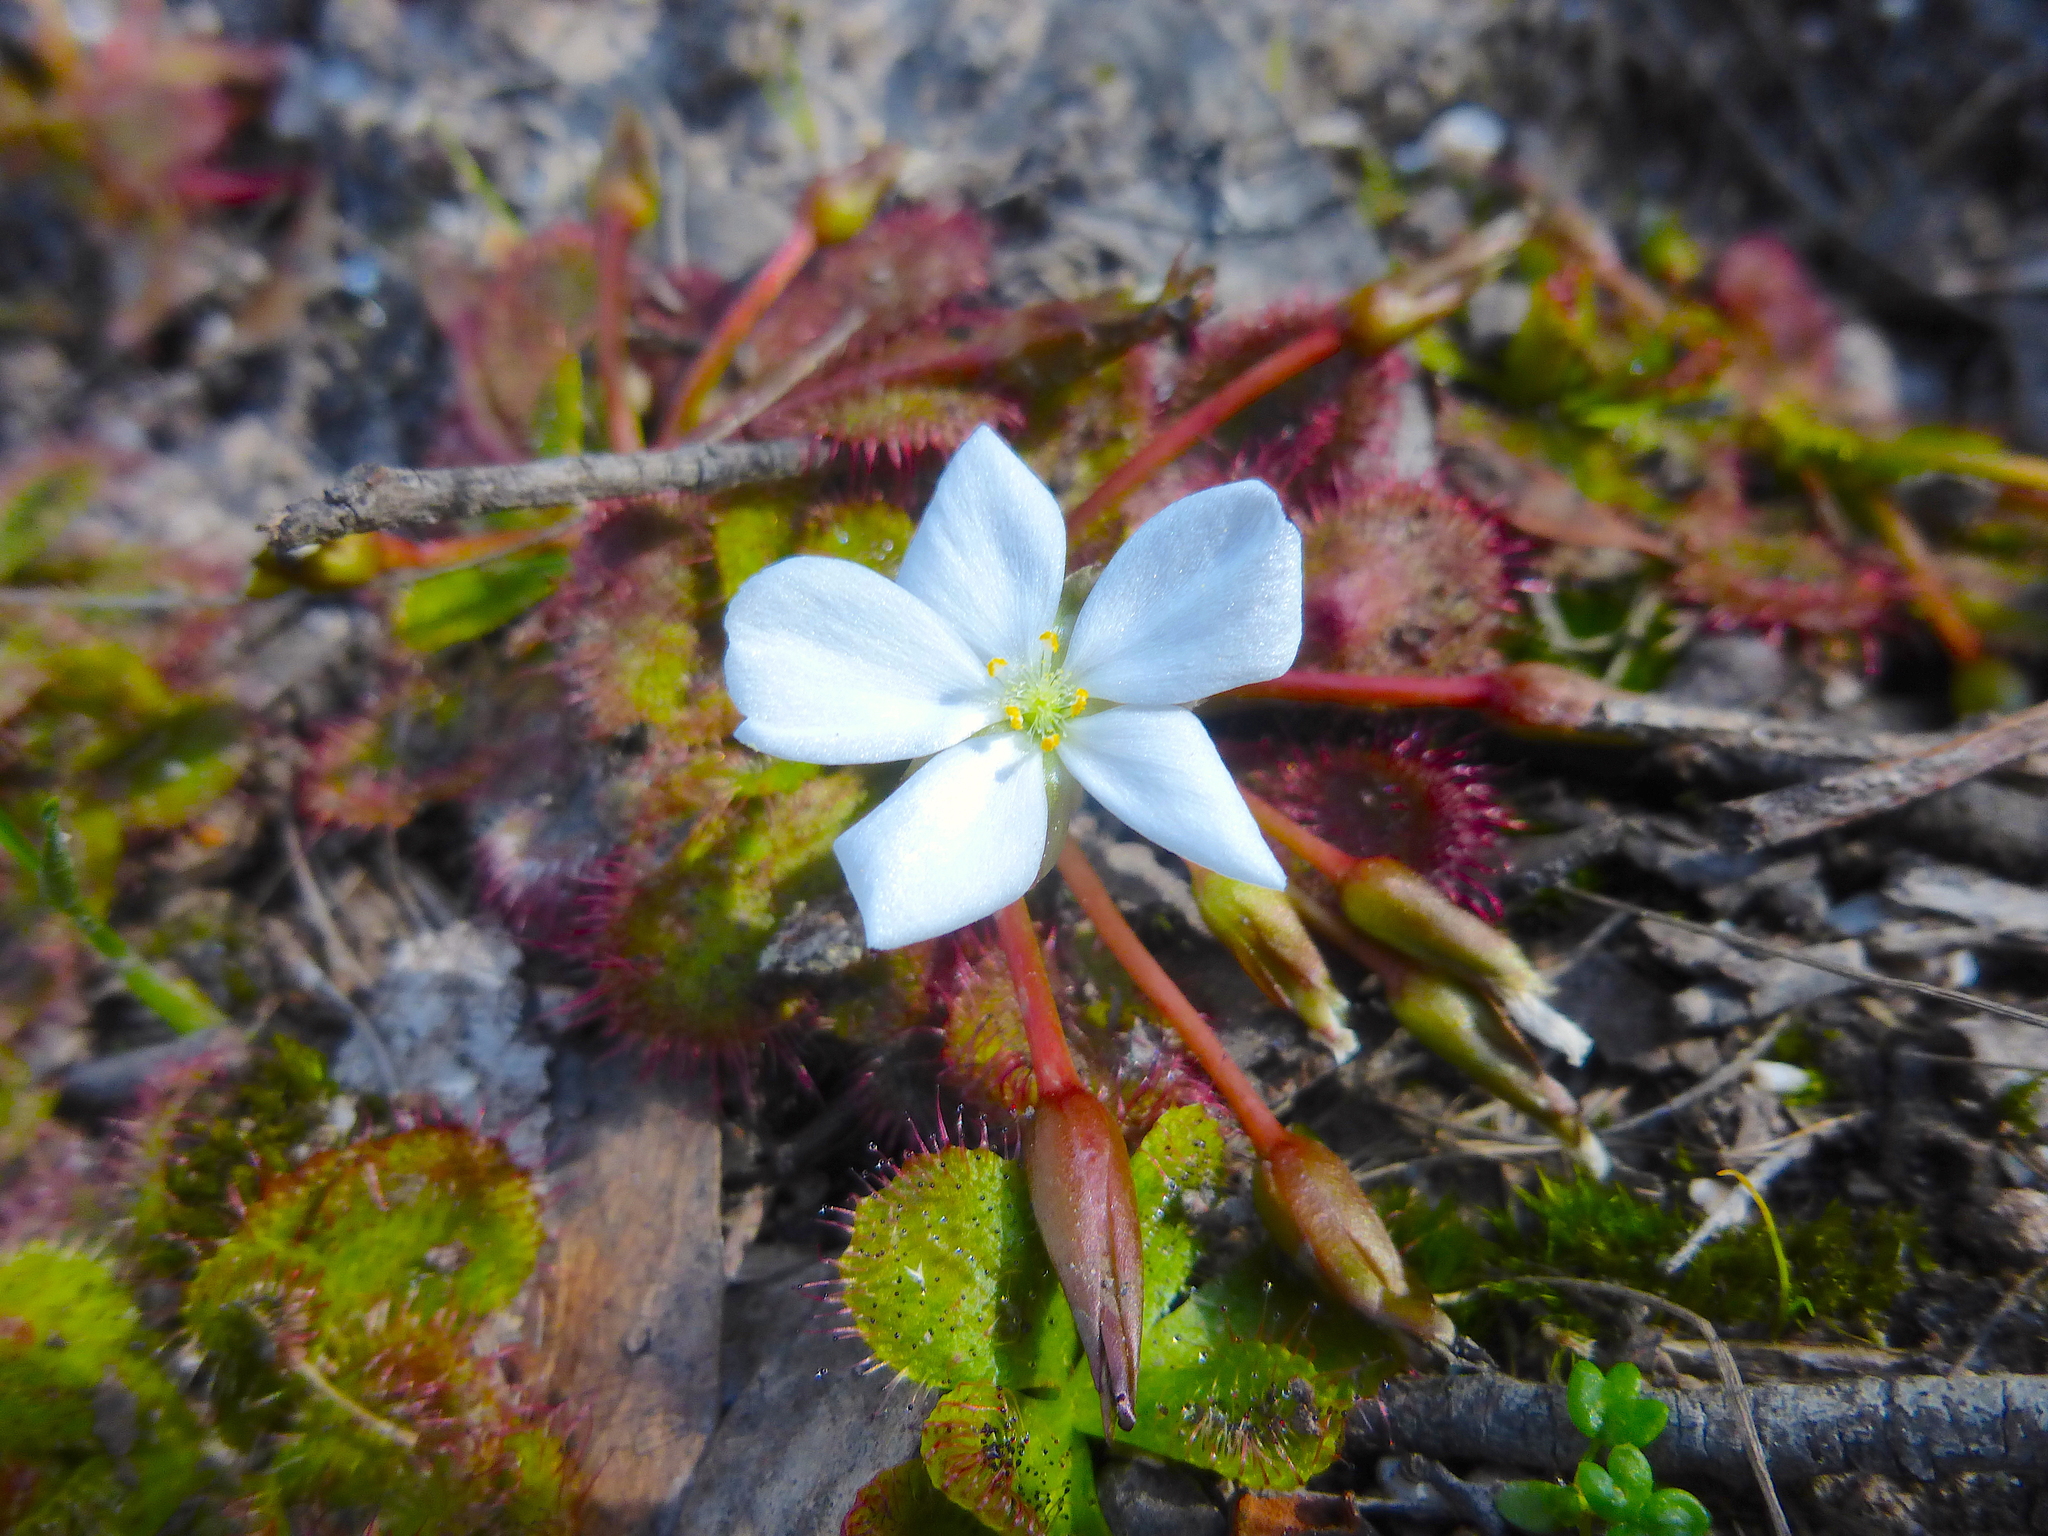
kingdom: Plantae
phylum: Tracheophyta
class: Magnoliopsida
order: Caryophyllales
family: Droseraceae
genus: Drosera
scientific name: Drosera aberrans
